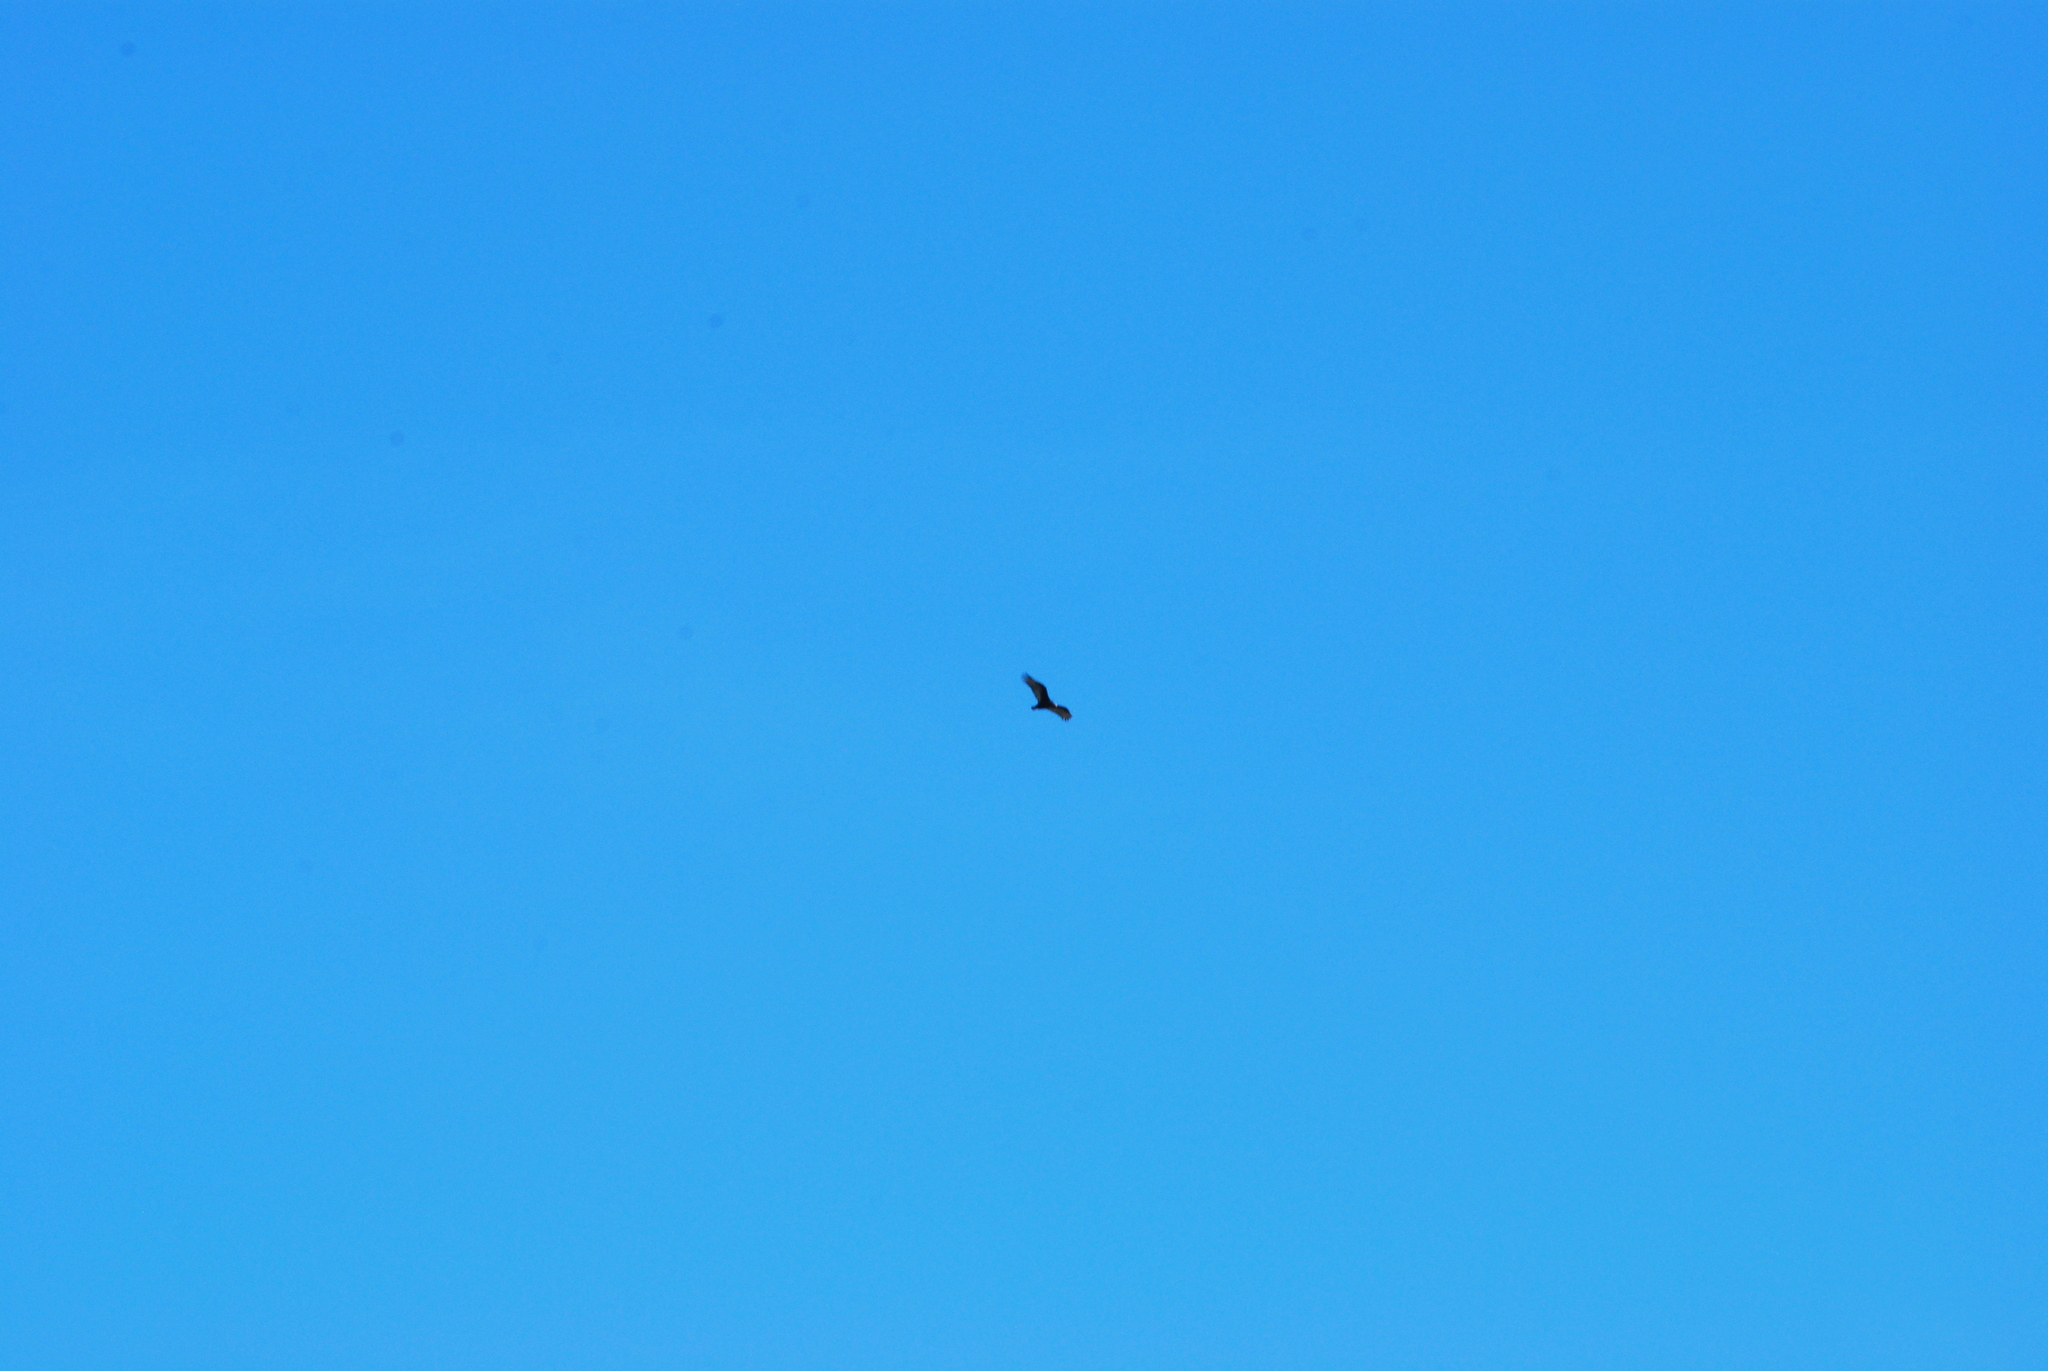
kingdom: Animalia
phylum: Chordata
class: Aves
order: Accipitriformes
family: Cathartidae
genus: Cathartes
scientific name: Cathartes aura
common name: Turkey vulture
